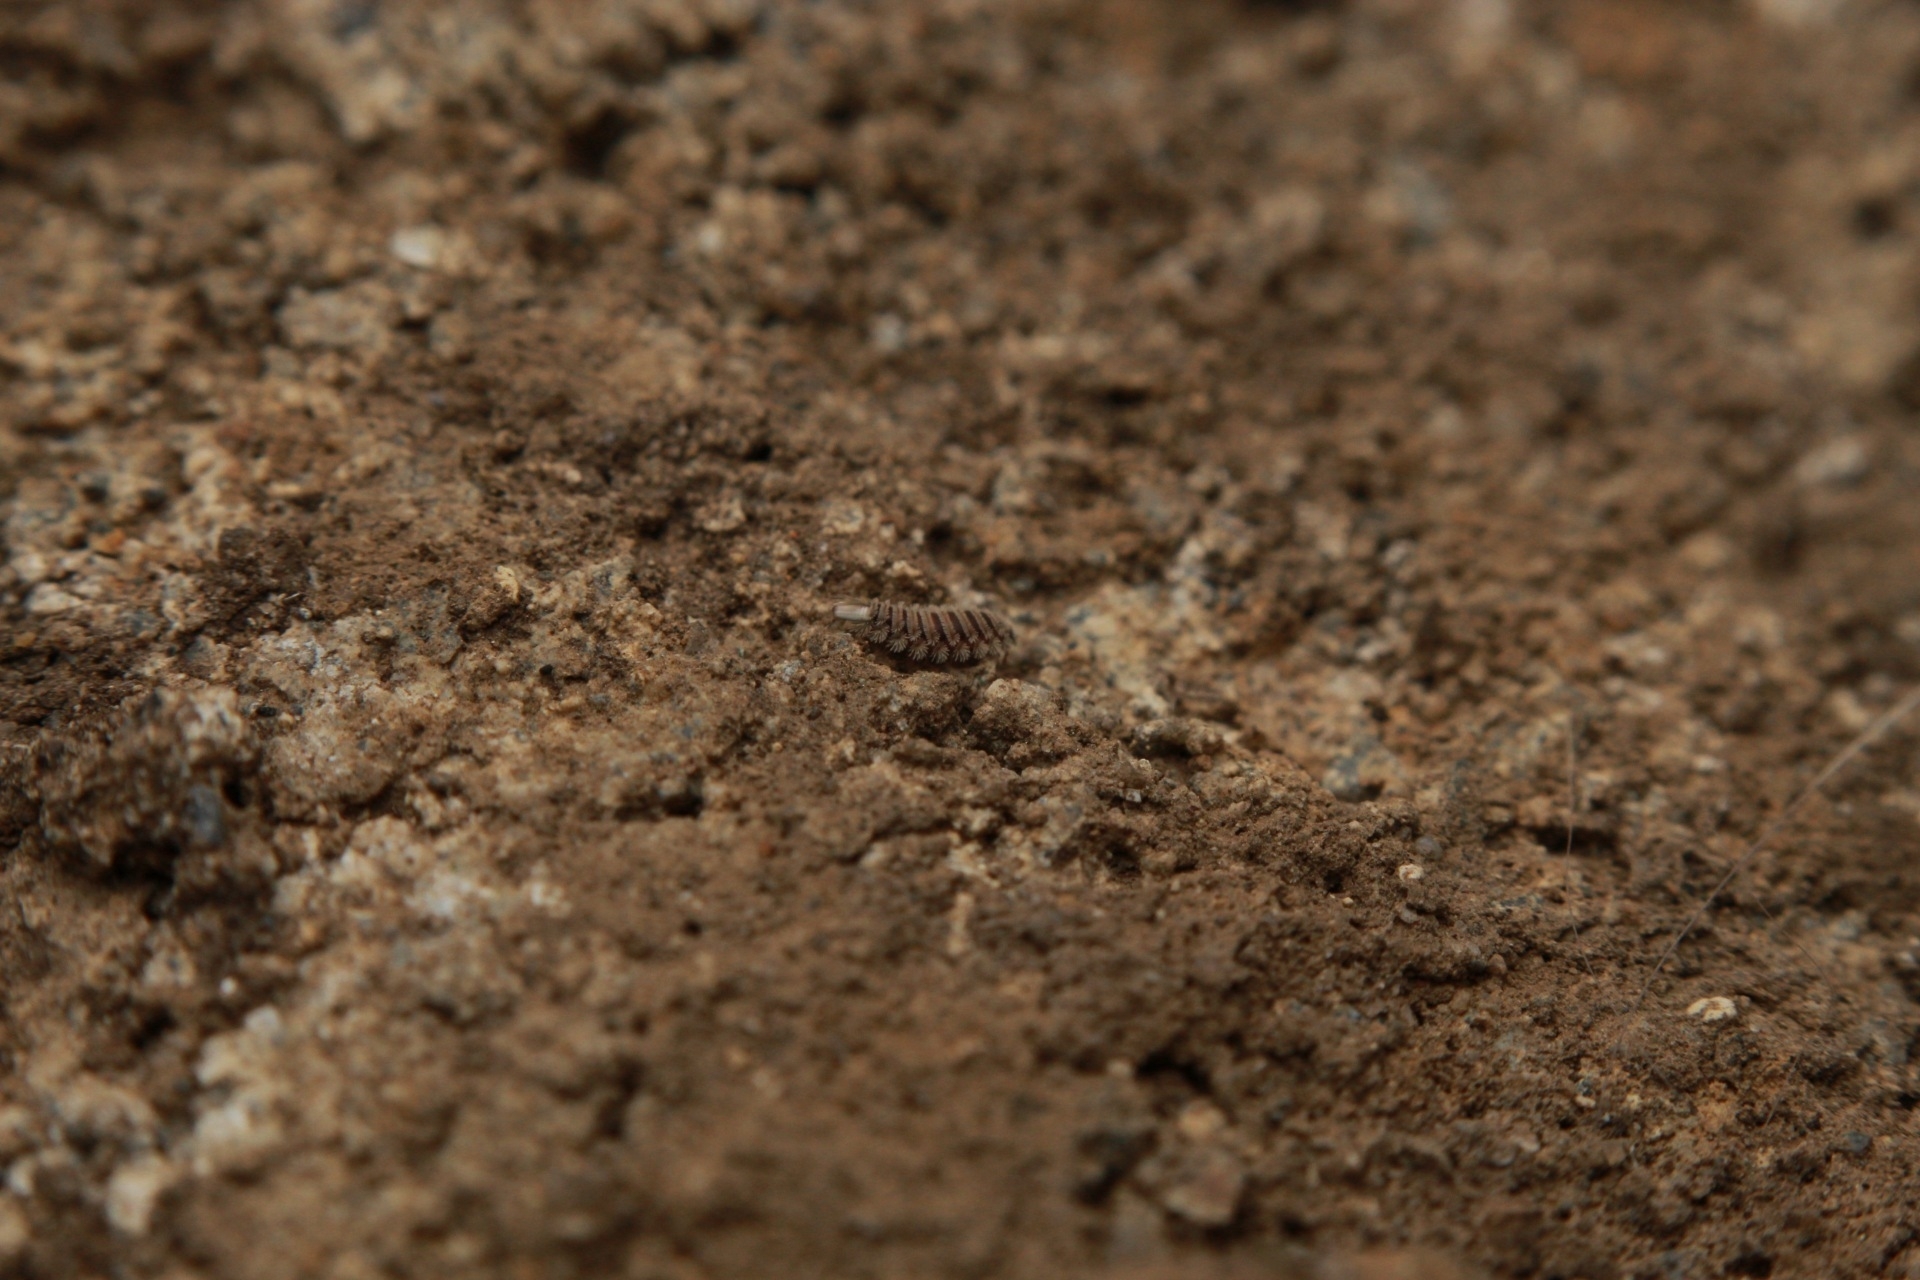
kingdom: Animalia
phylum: Arthropoda
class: Diplopoda
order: Polyxenida
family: Polyxenidae
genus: Polyxenus
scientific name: Polyxenus lagurus
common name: Bristly millipede
